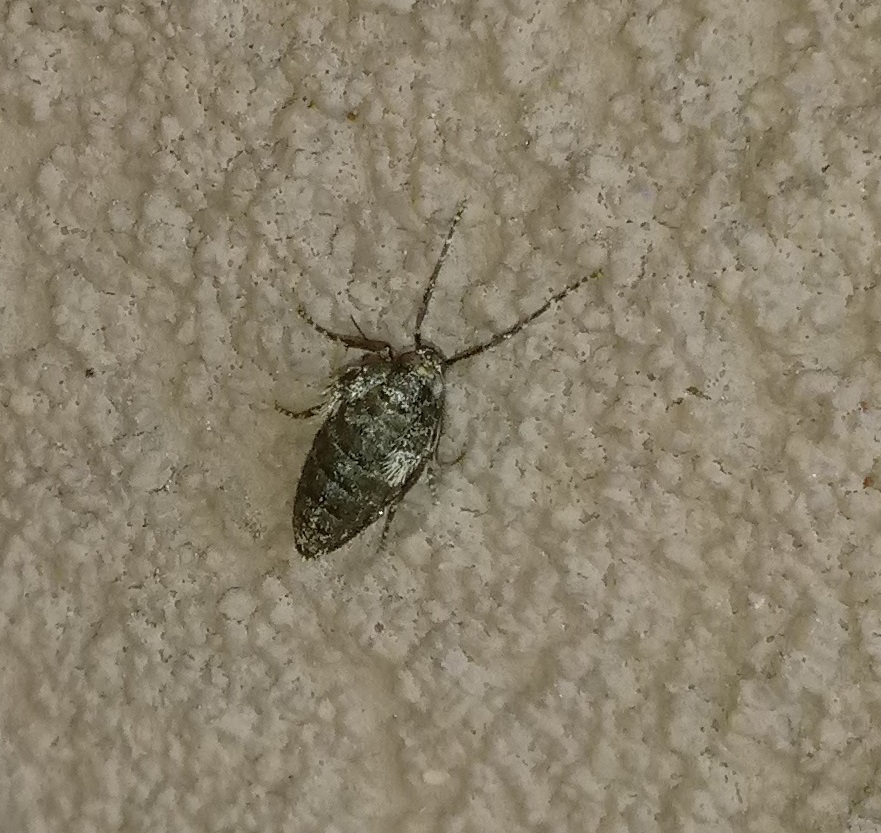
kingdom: Animalia
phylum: Arthropoda
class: Insecta
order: Lepidoptera
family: Geometridae
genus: Operophtera
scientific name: Operophtera brumata
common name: Winter moth
